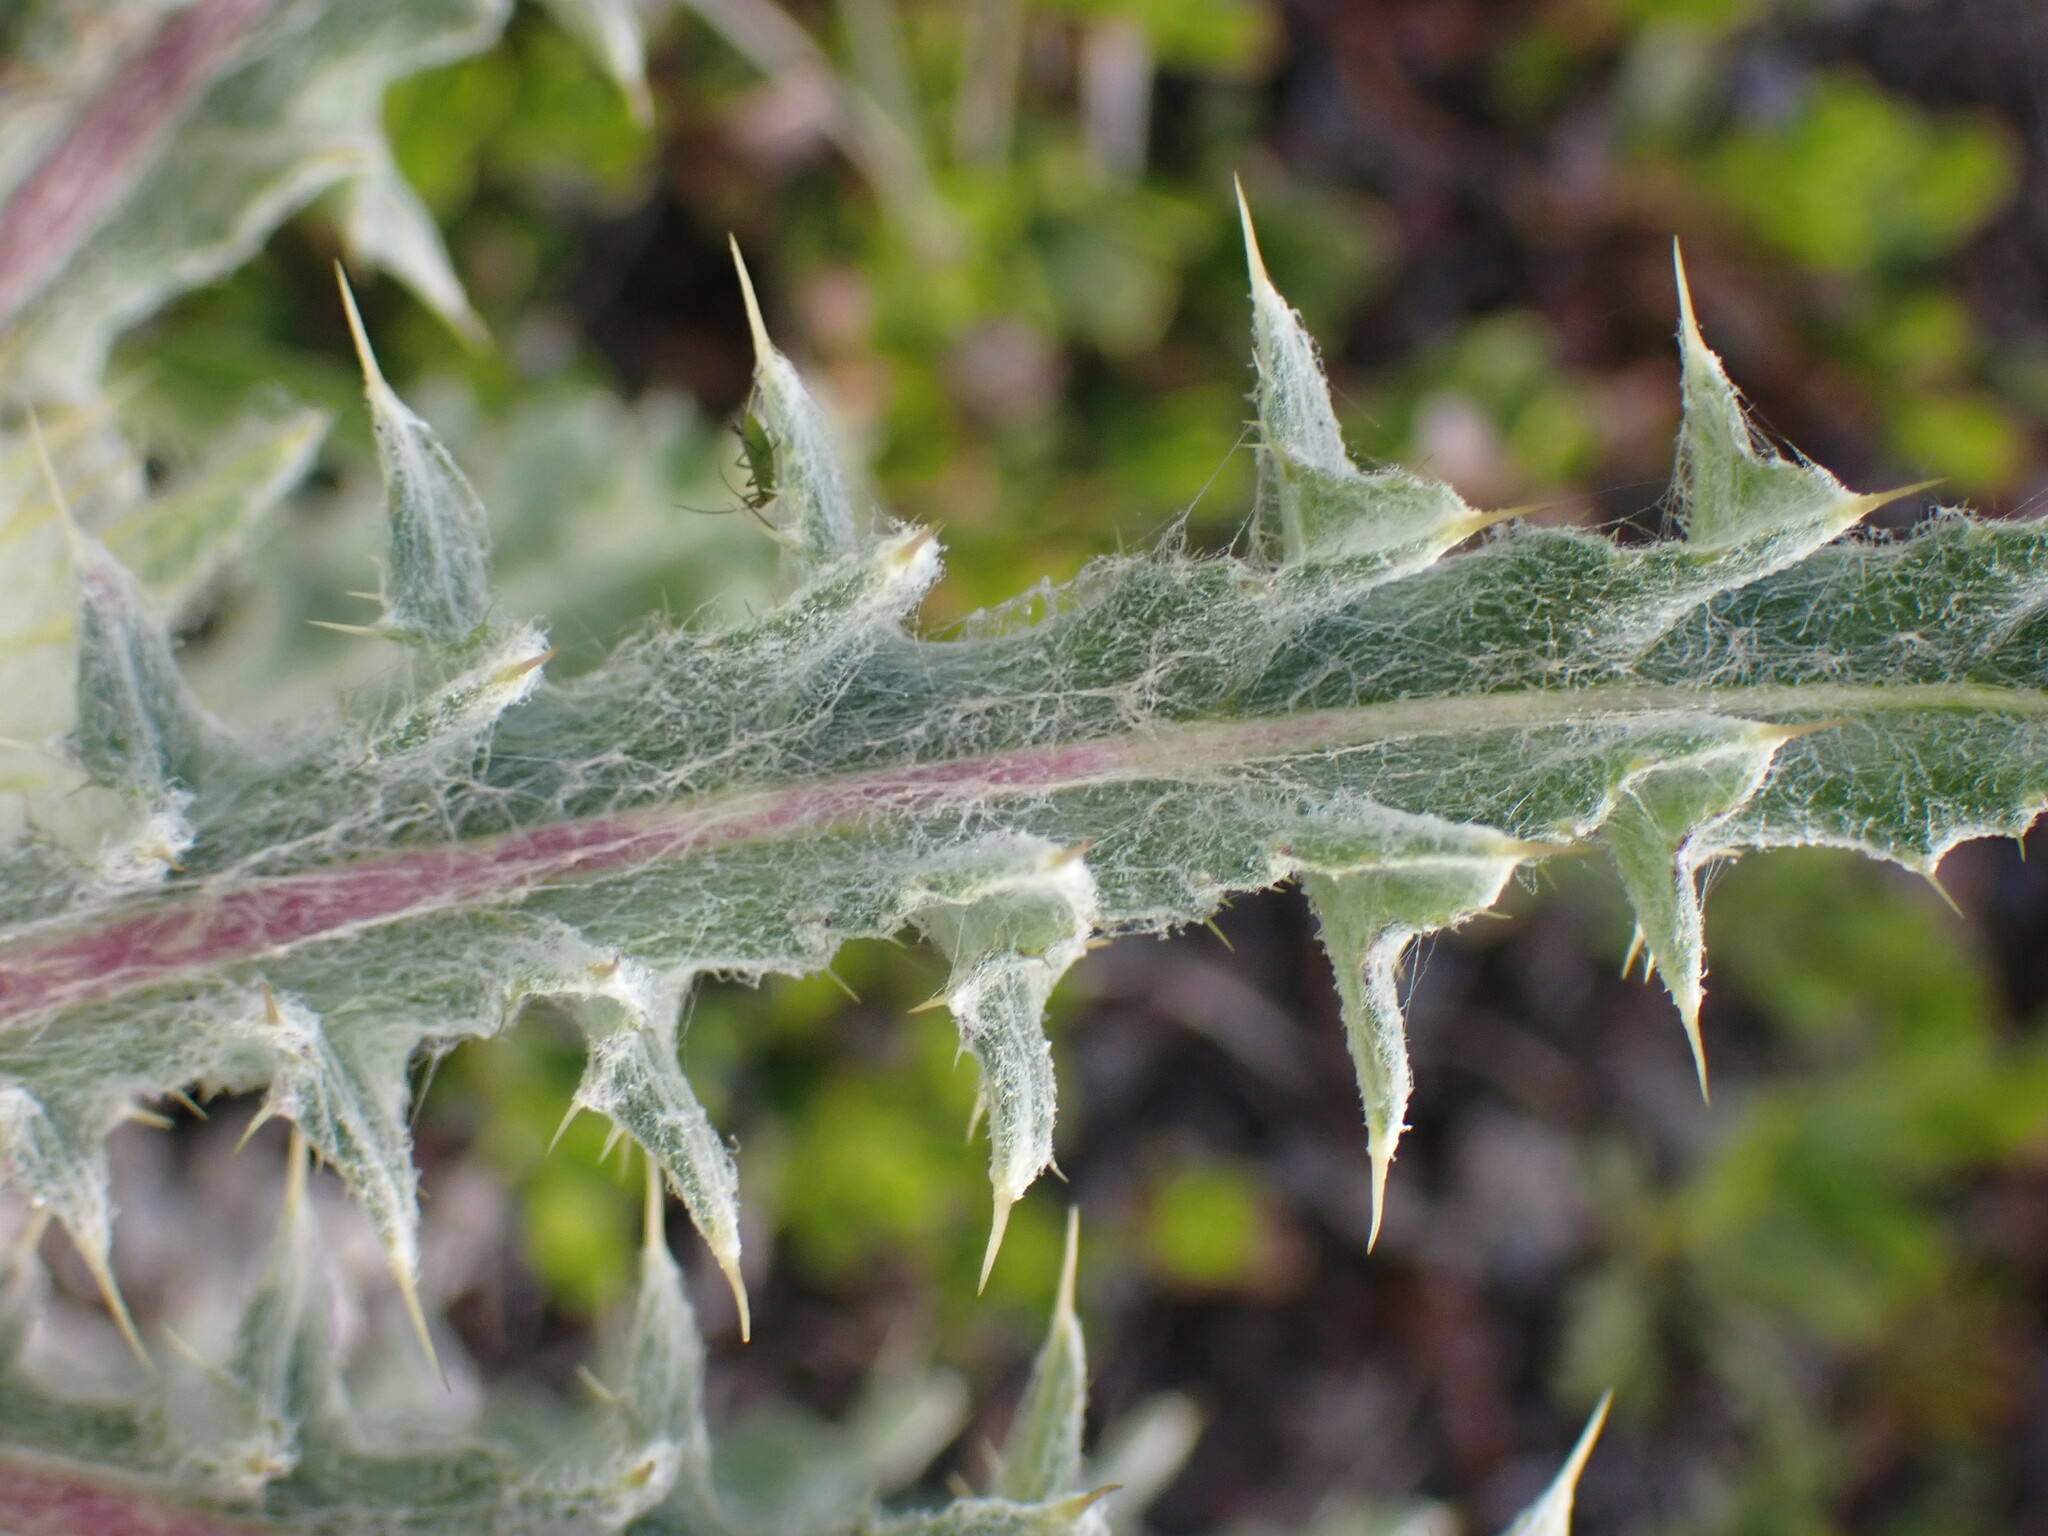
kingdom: Plantae
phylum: Tracheophyta
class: Magnoliopsida
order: Asterales
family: Asteraceae
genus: Cirsium
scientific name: Cirsium hookerianum
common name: Hooker's thistle
